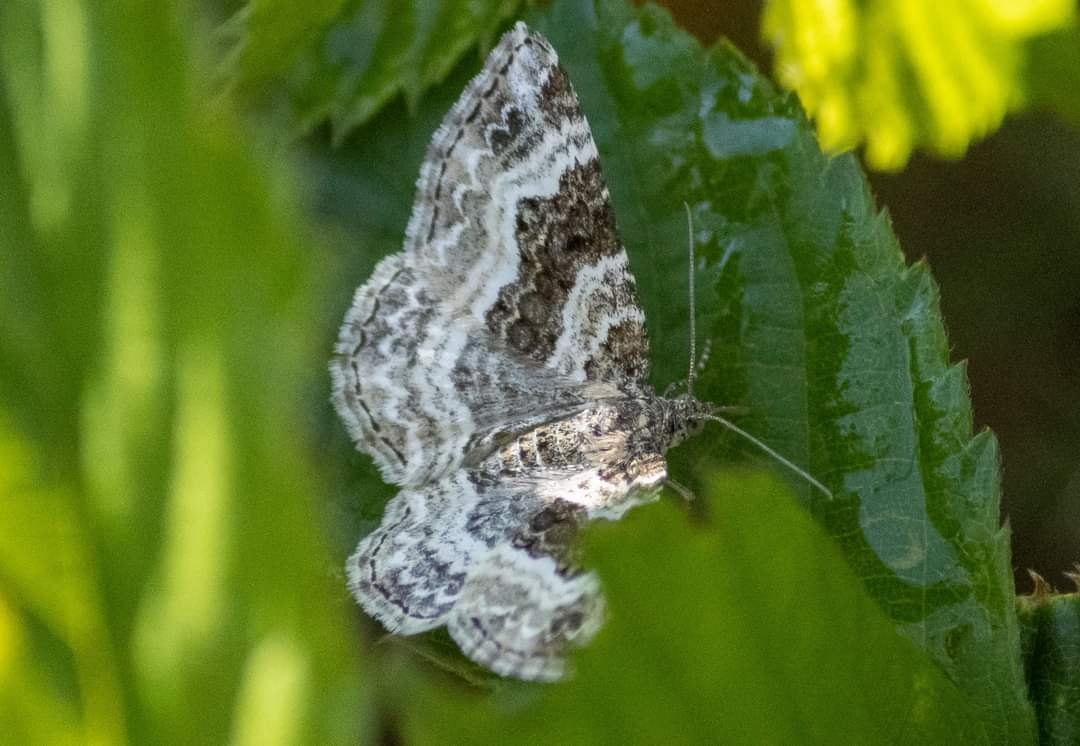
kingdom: Animalia
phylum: Arthropoda
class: Insecta
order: Lepidoptera
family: Geometridae
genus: Epirrhoe
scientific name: Epirrhoe alternata
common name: Common carpet
